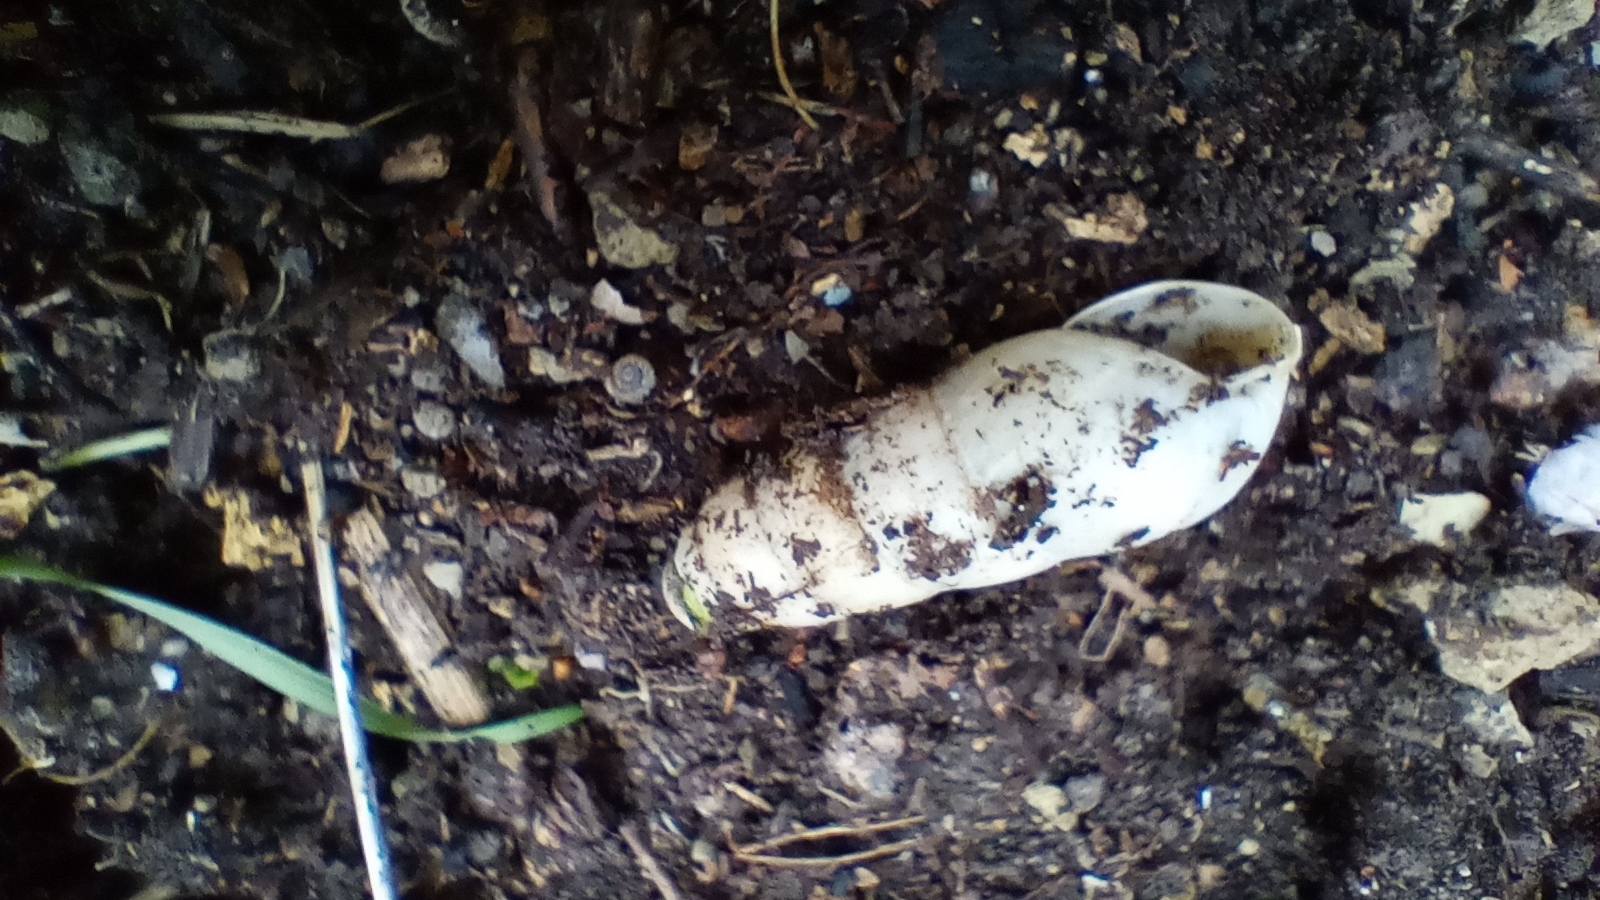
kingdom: Animalia
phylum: Mollusca
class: Gastropoda
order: Stylommatophora
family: Achatinidae
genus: Rumina
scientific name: Rumina decollata
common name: Decollate snail
